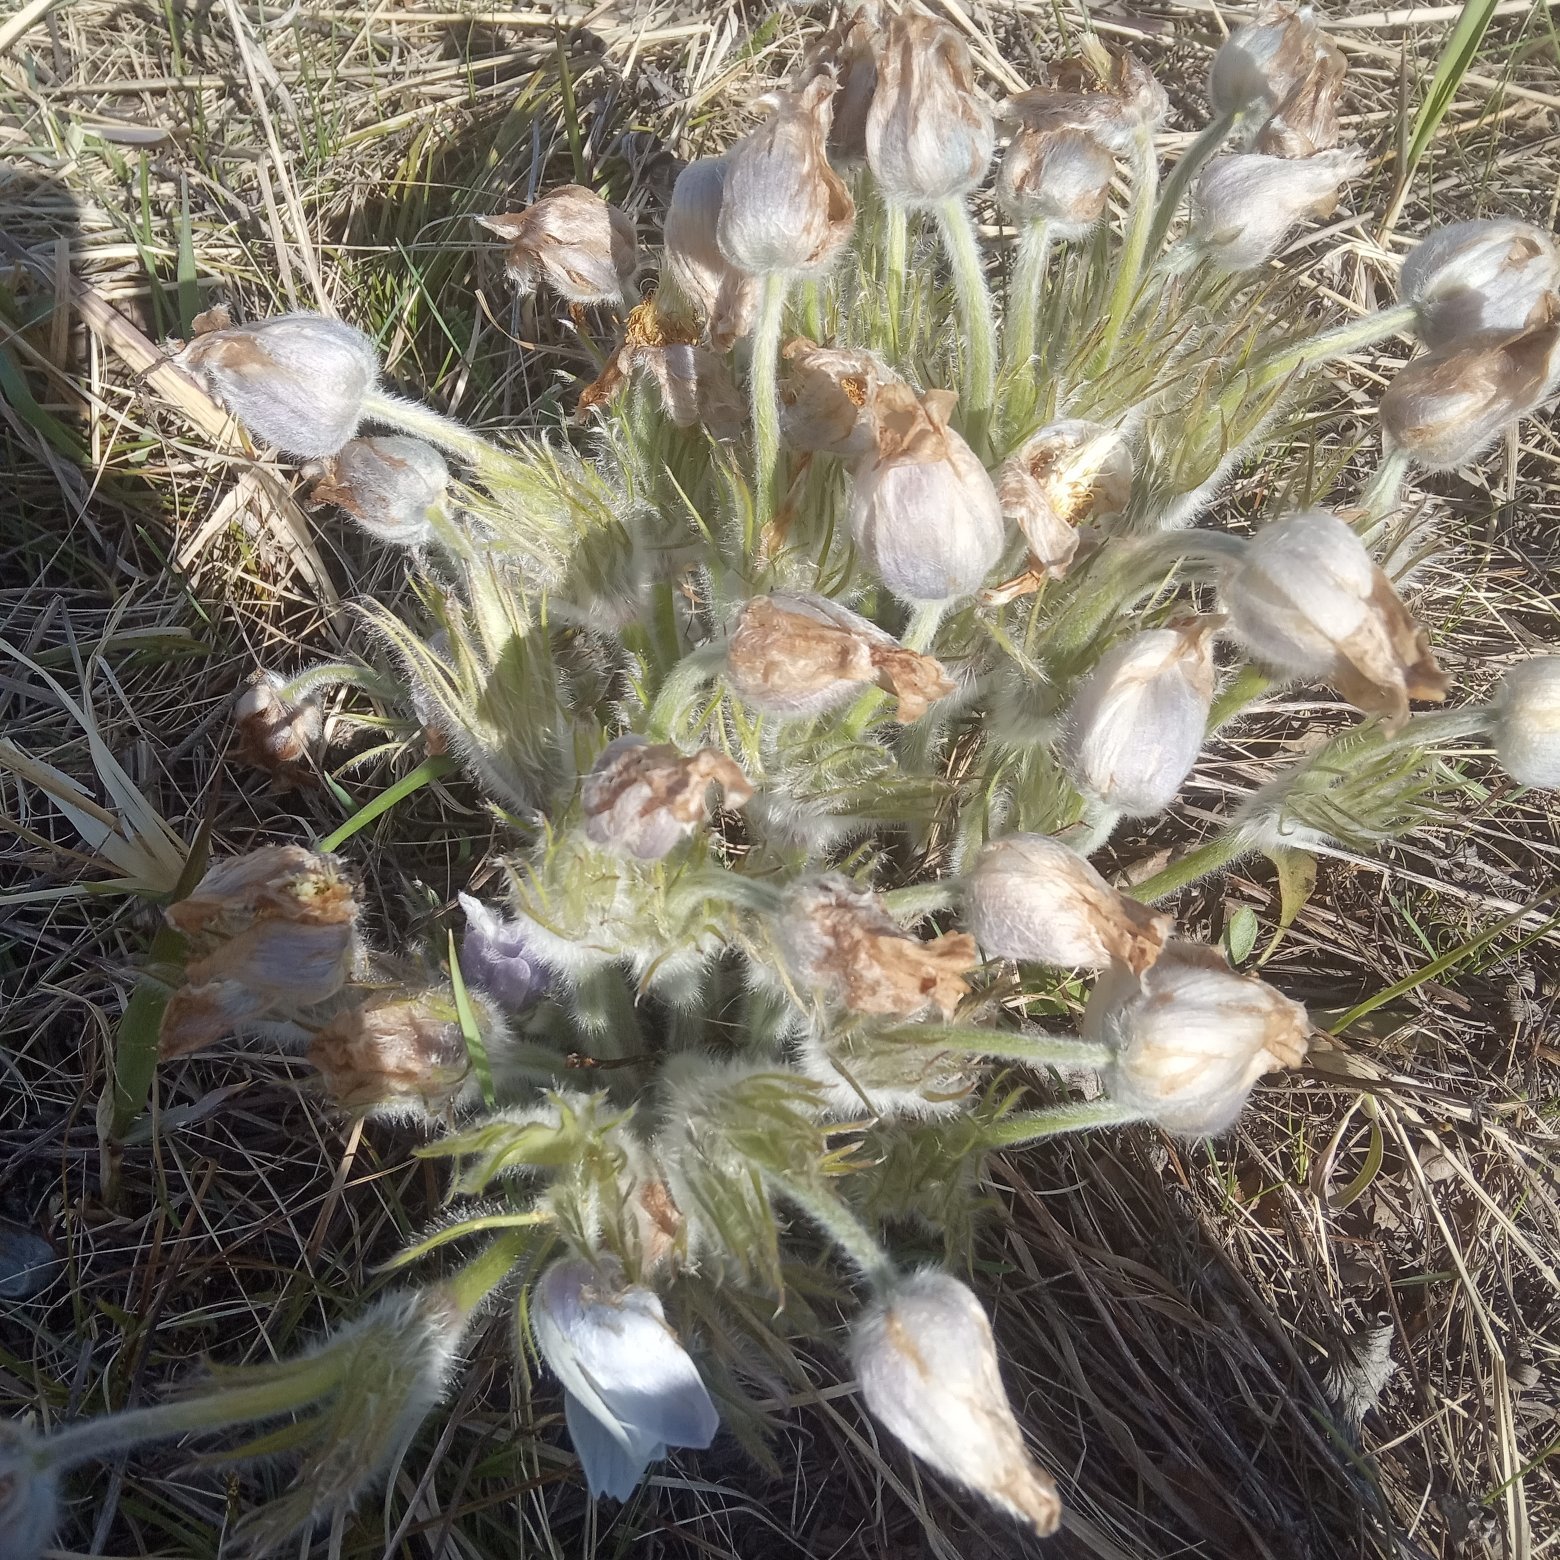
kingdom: Plantae
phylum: Tracheophyta
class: Magnoliopsida
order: Ranunculales
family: Ranunculaceae
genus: Pulsatilla
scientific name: Pulsatilla patens
